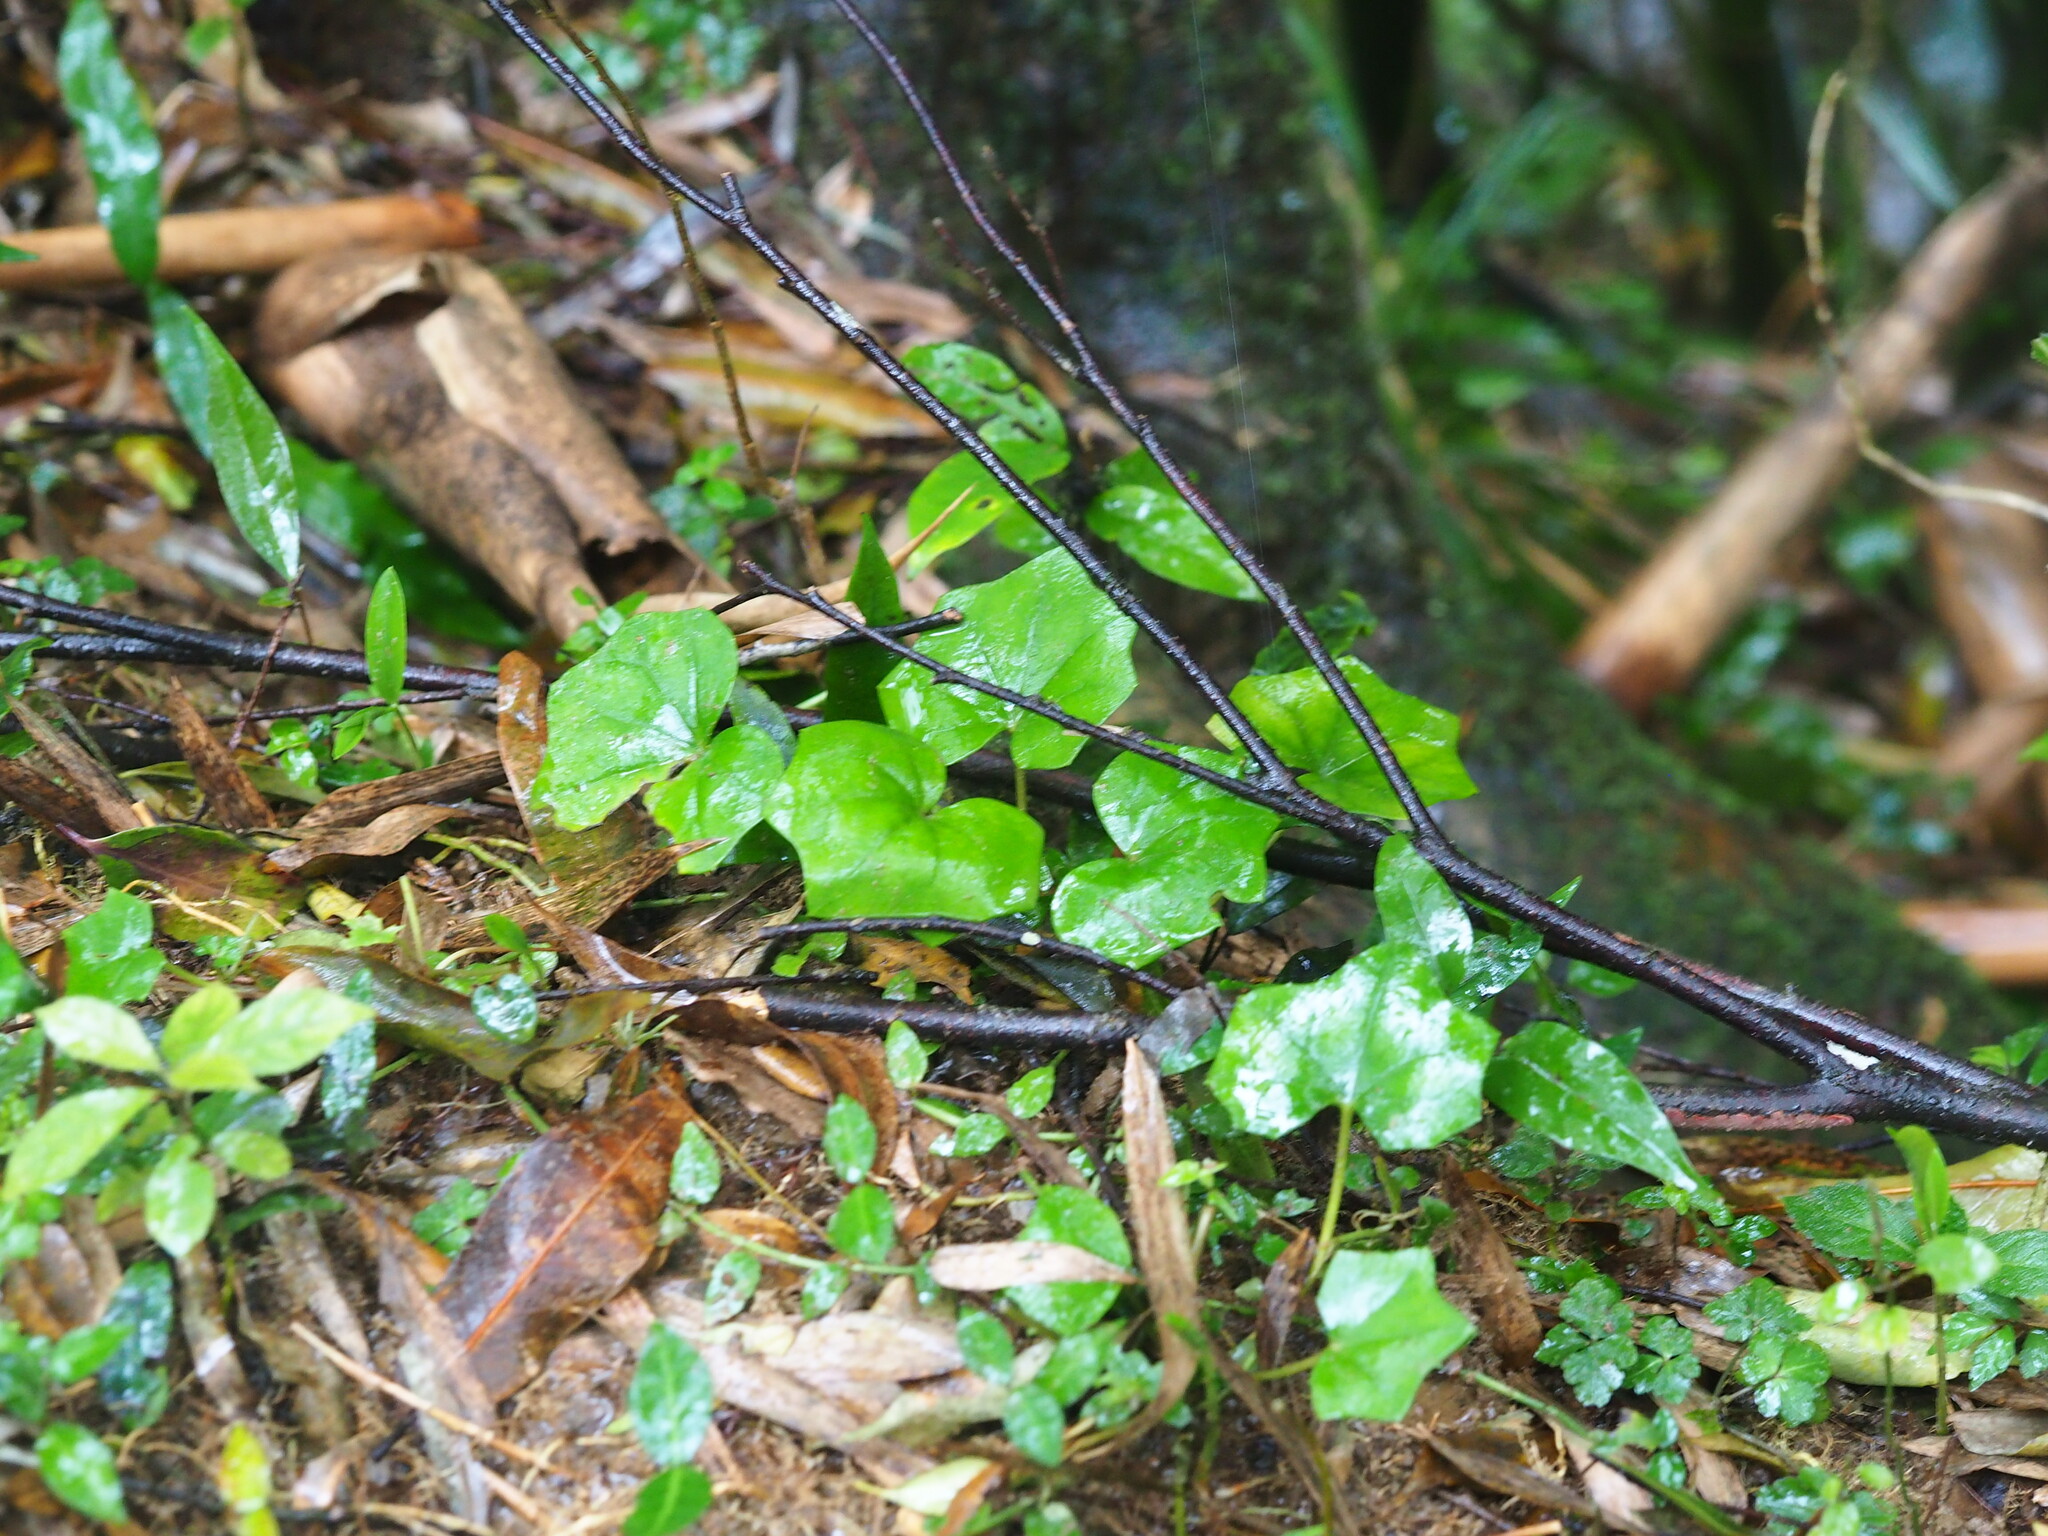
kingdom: Plantae
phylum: Tracheophyta
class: Magnoliopsida
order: Asterales
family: Asteraceae
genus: Farfugium
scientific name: Farfugium japonicum
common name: Leopardplant
